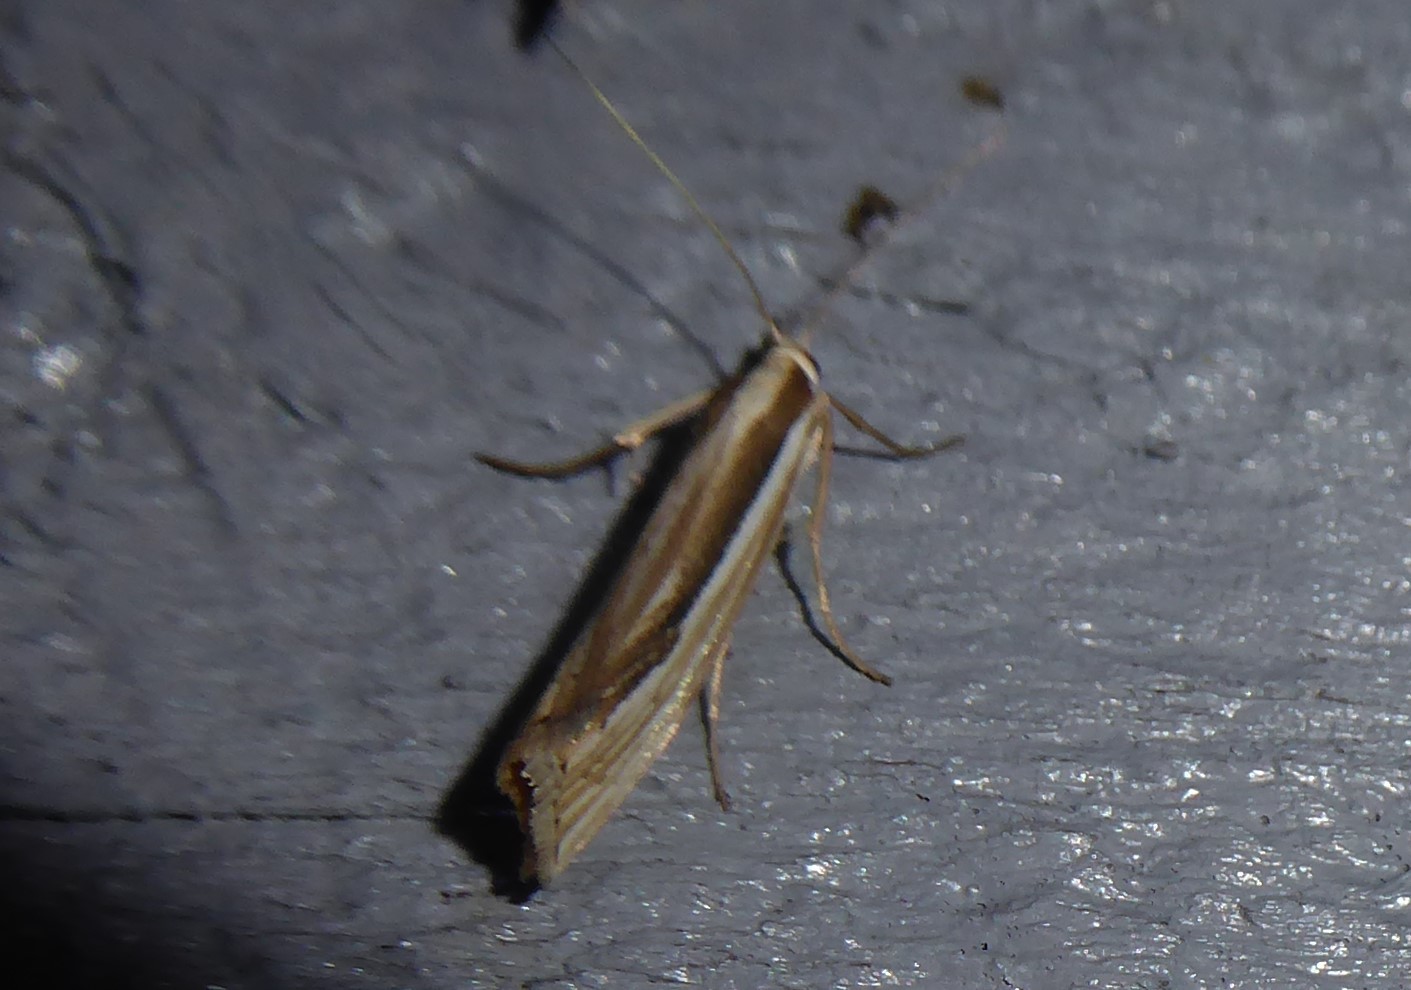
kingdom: Animalia
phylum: Arthropoda
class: Insecta
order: Lepidoptera
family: Crambidae
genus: Orocrambus
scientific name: Orocrambus ramosellus
